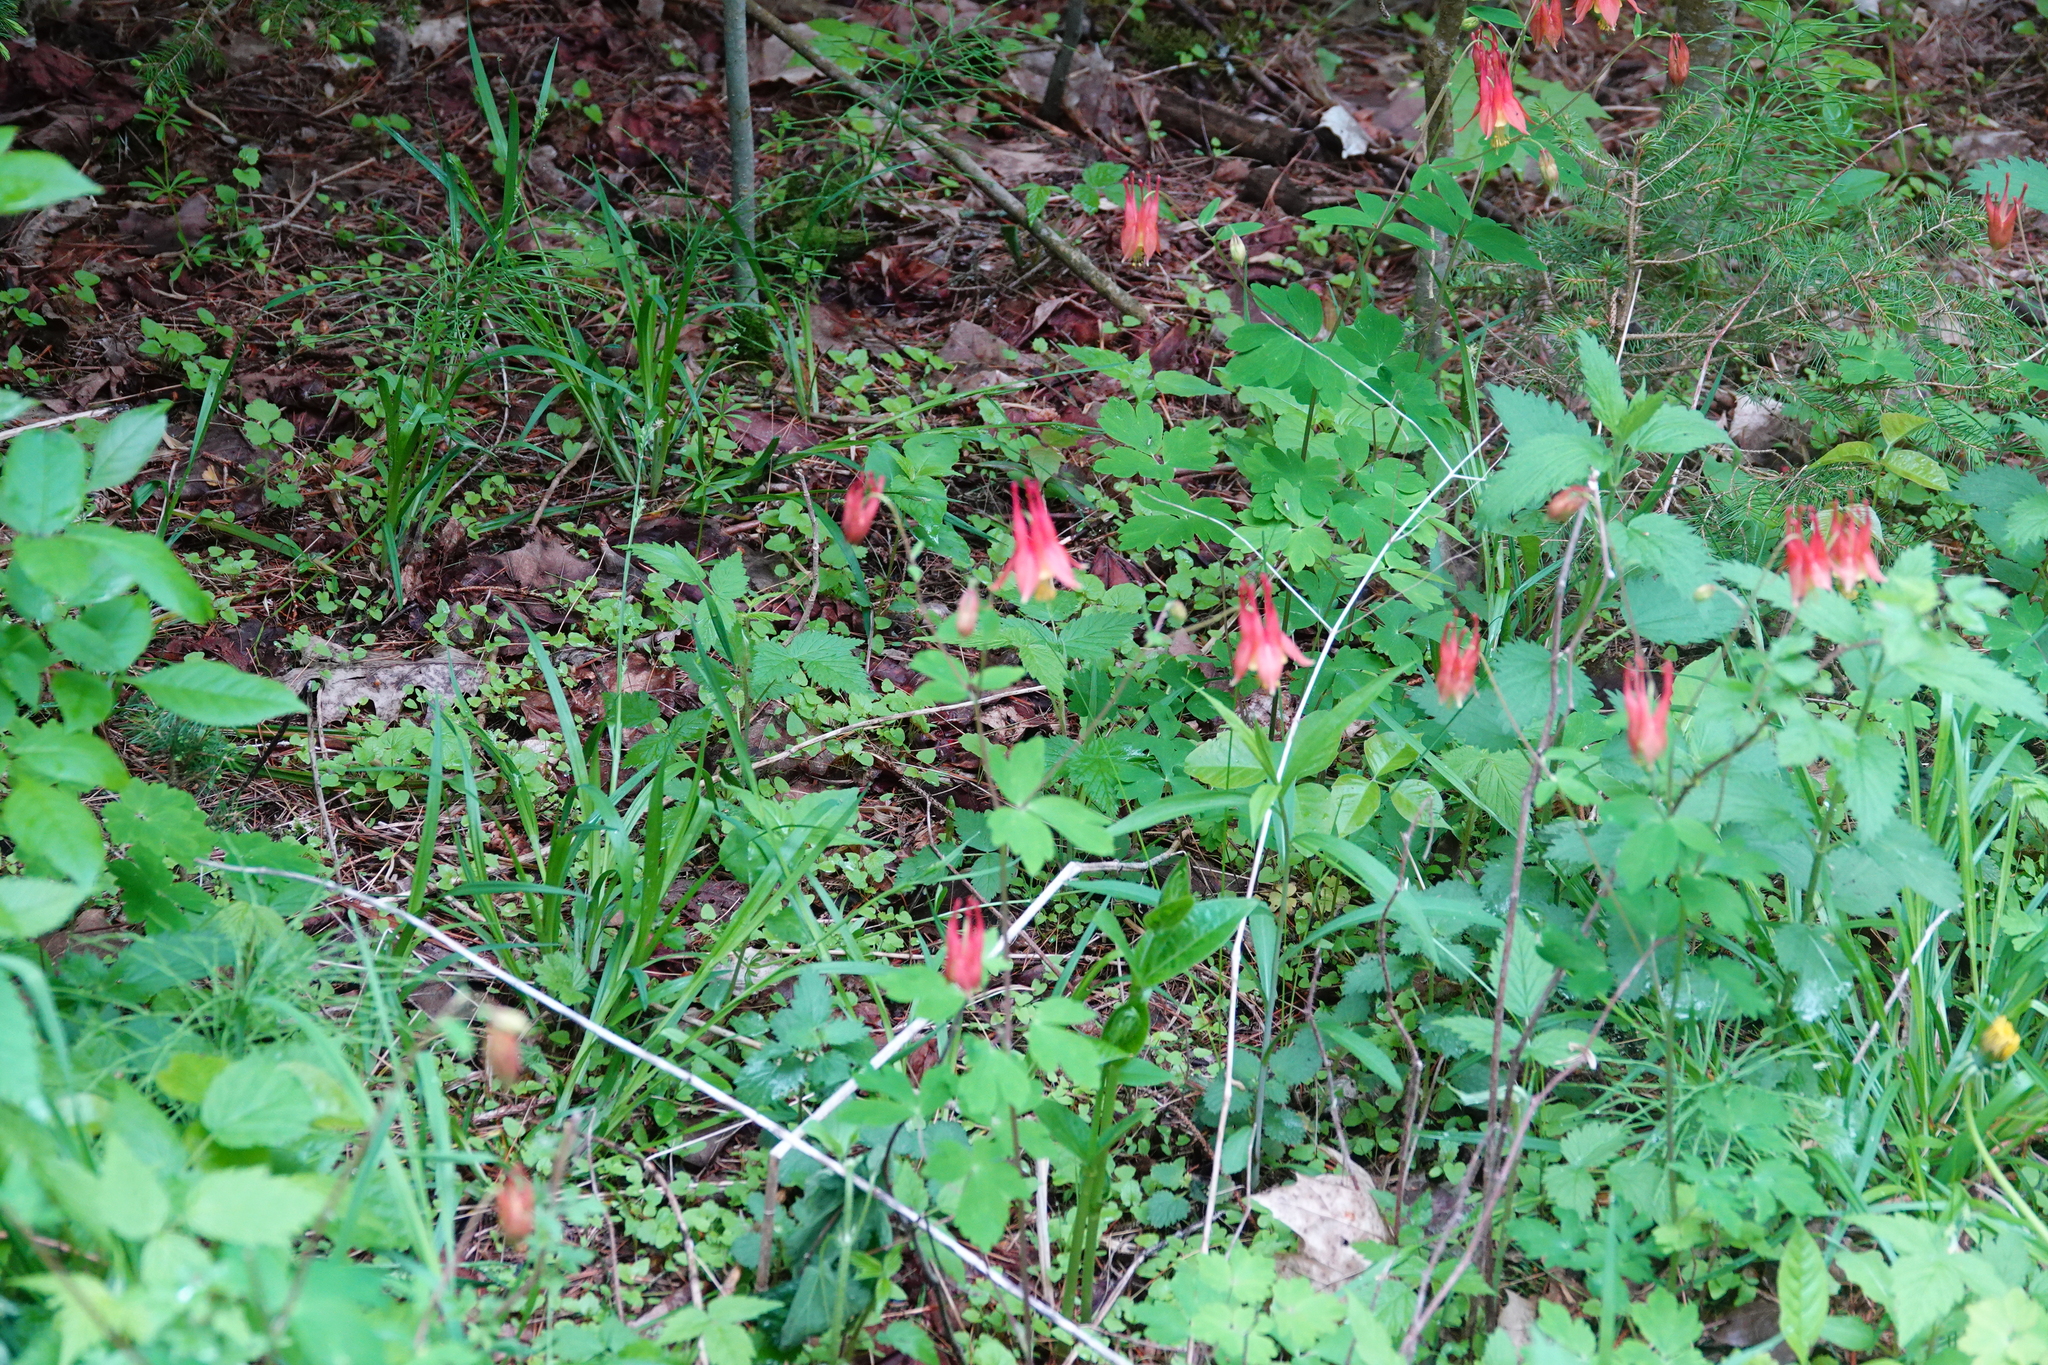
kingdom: Plantae
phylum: Tracheophyta
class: Magnoliopsida
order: Ranunculales
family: Ranunculaceae
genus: Aquilegia
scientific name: Aquilegia canadensis
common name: American columbine
